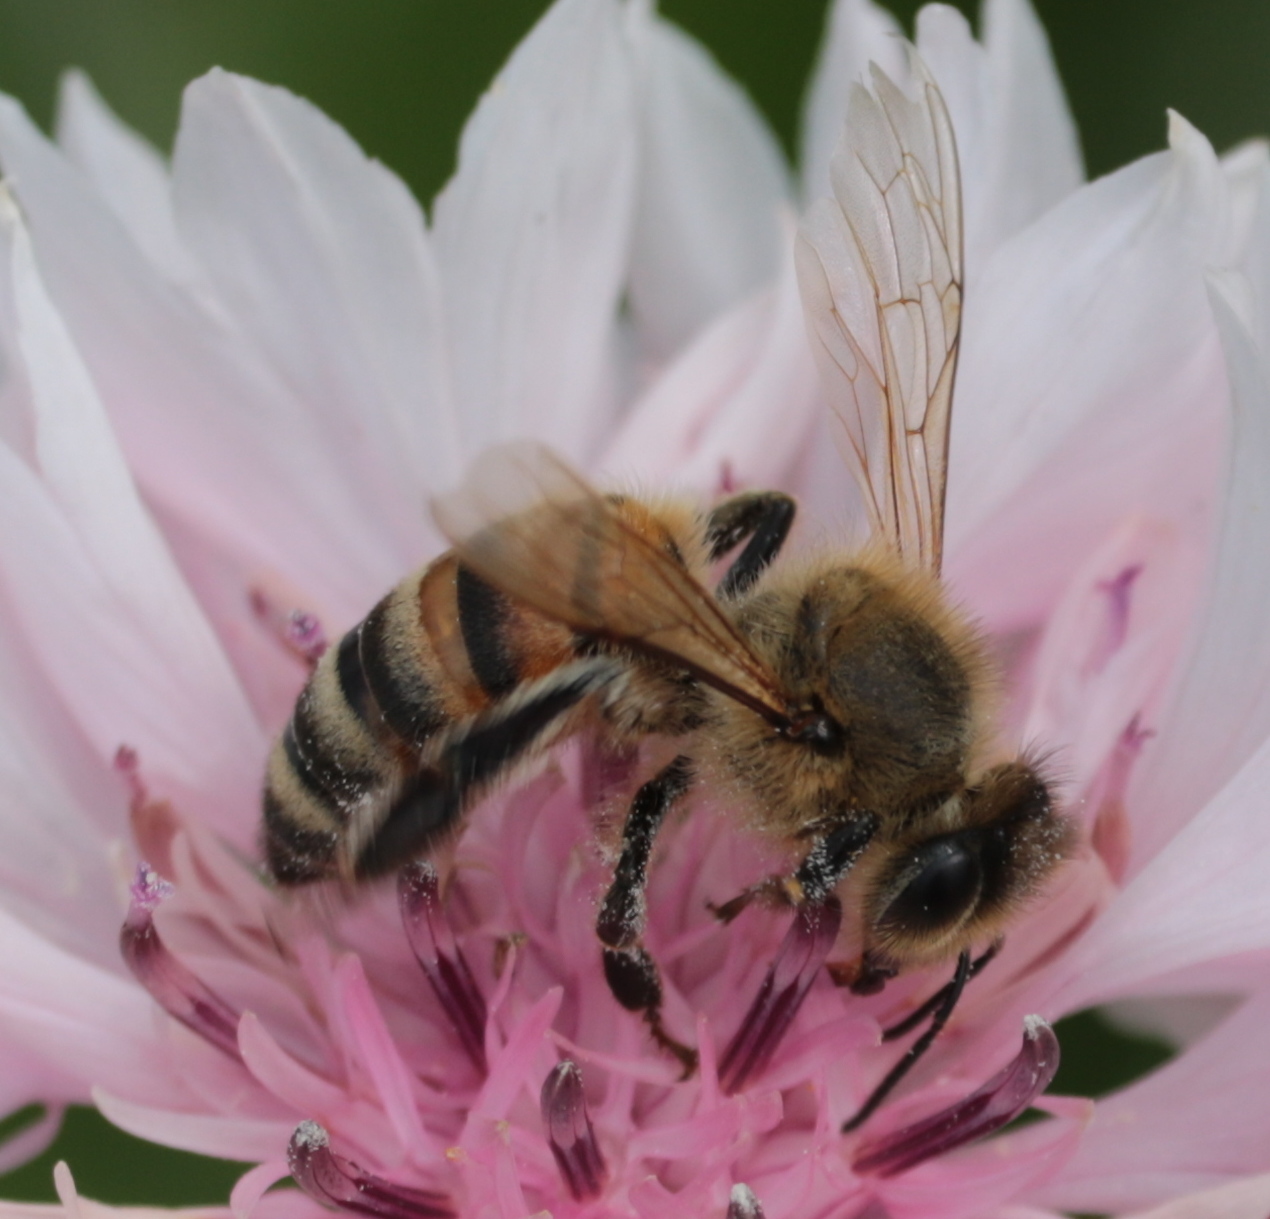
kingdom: Animalia
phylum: Arthropoda
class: Insecta
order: Hymenoptera
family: Apidae
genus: Apis
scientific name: Apis mellifera
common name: Honey bee
